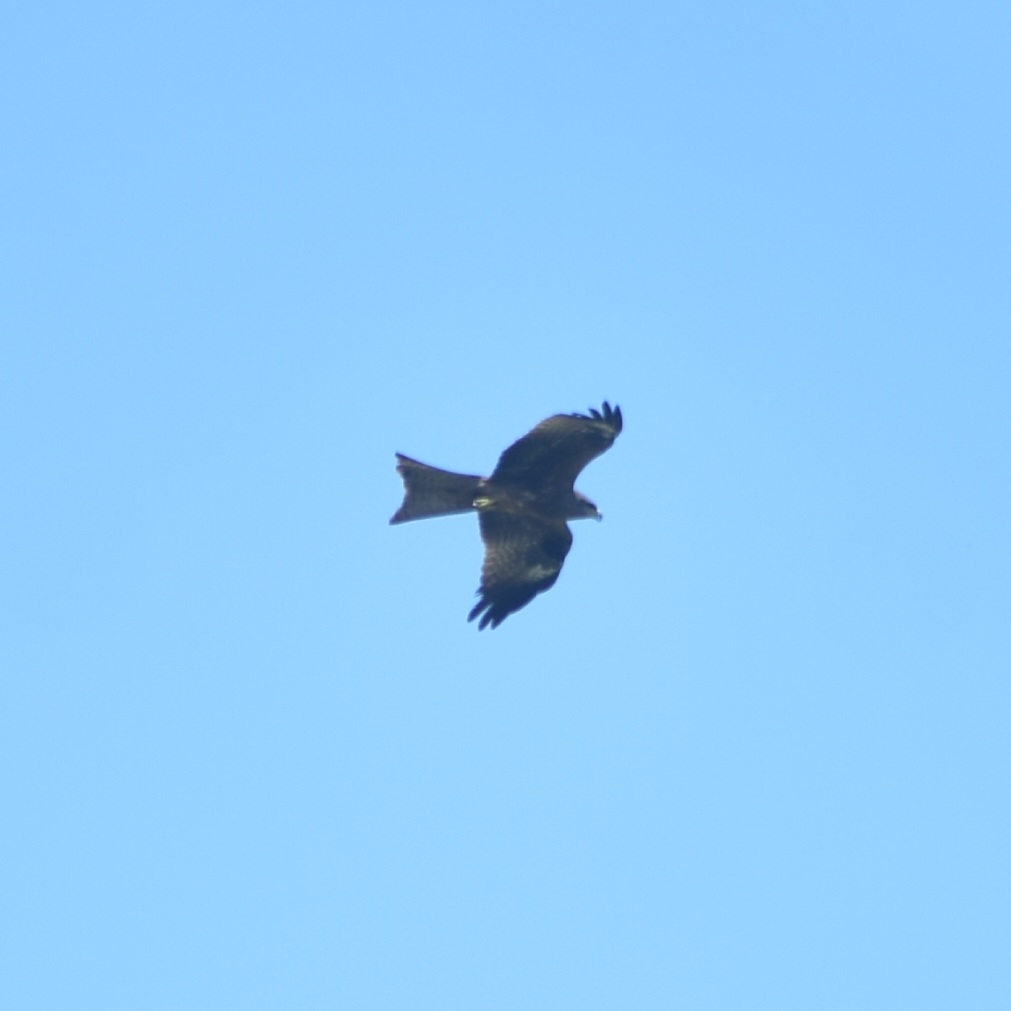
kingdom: Animalia
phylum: Chordata
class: Aves
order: Accipitriformes
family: Accipitridae
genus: Milvus
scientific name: Milvus migrans
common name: Black kite
